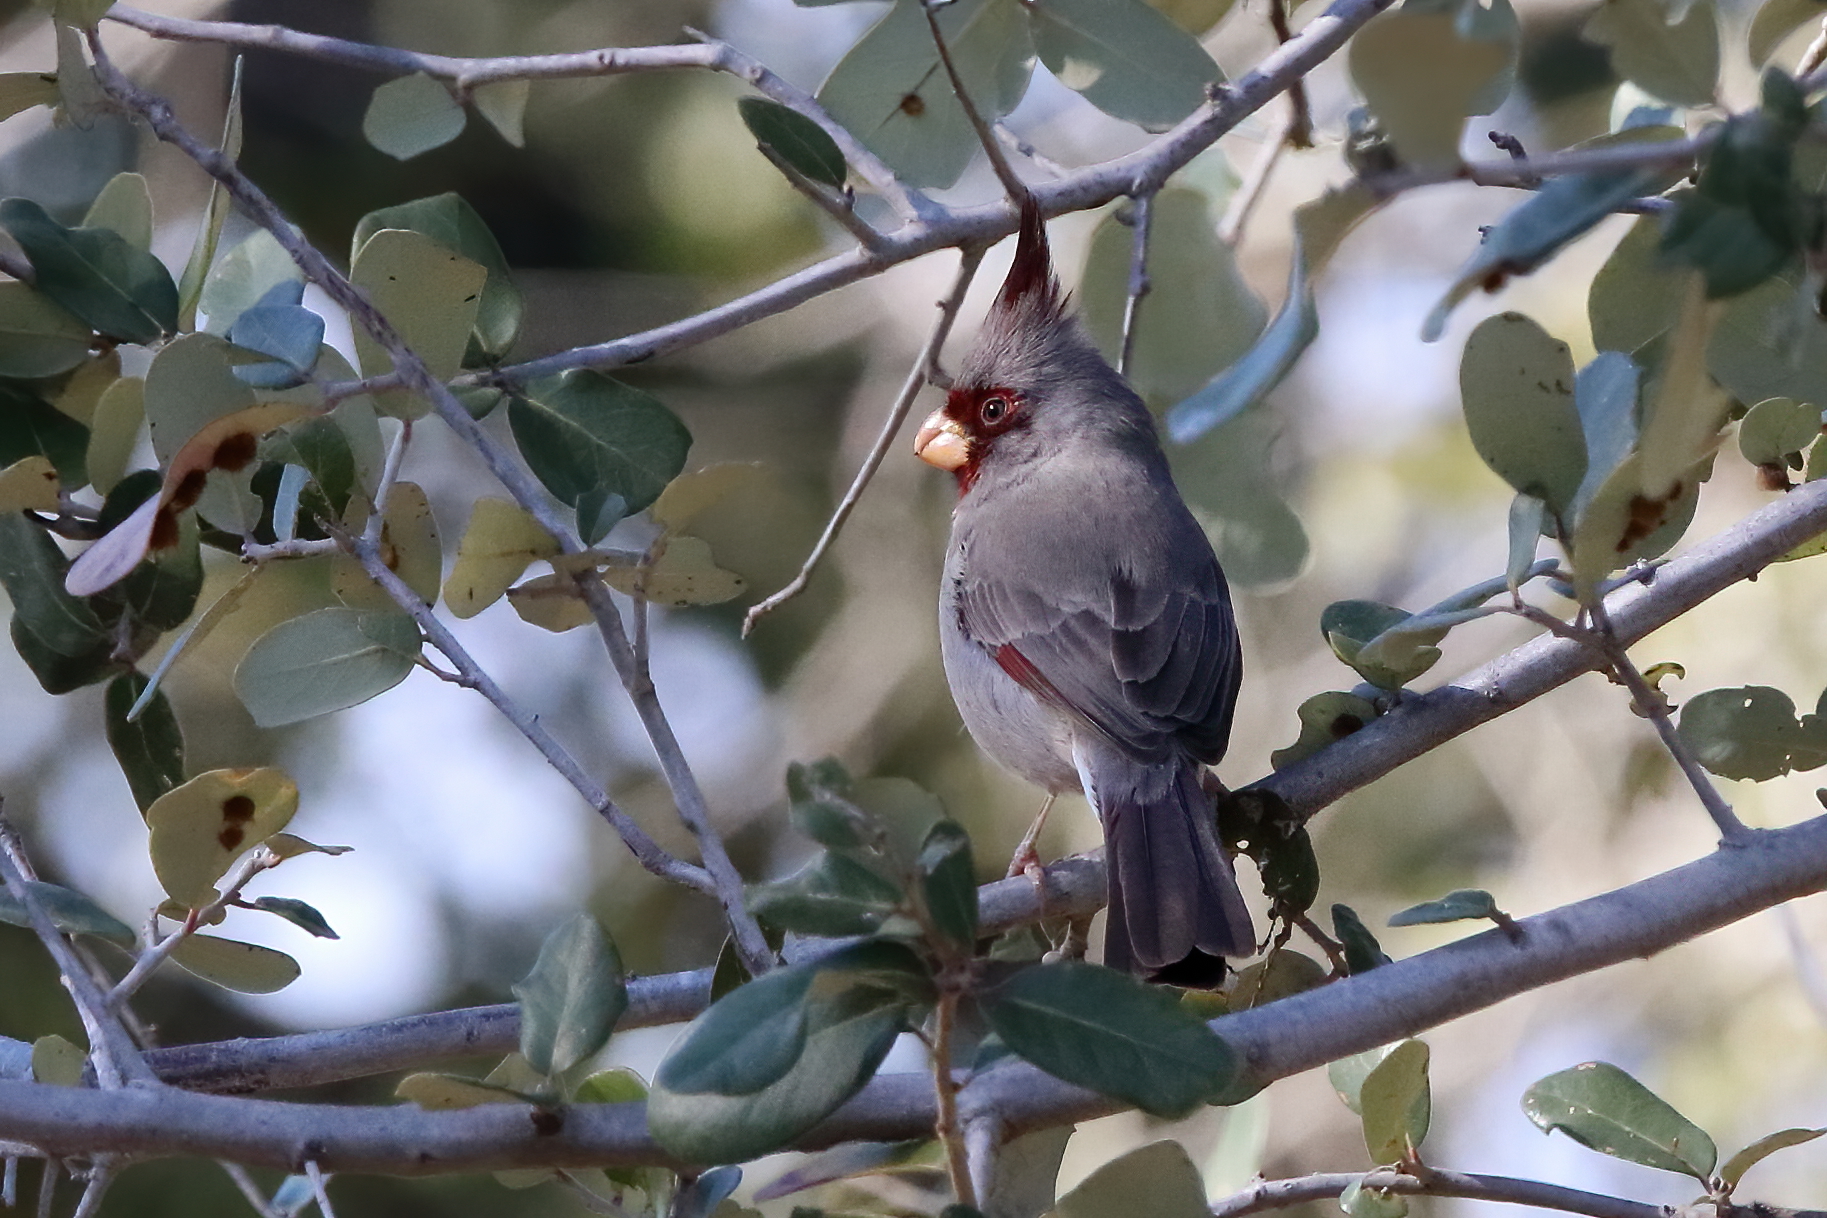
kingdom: Animalia
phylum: Chordata
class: Aves
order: Passeriformes
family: Cardinalidae
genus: Cardinalis
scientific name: Cardinalis sinuatus
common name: Pyrrhuloxia
